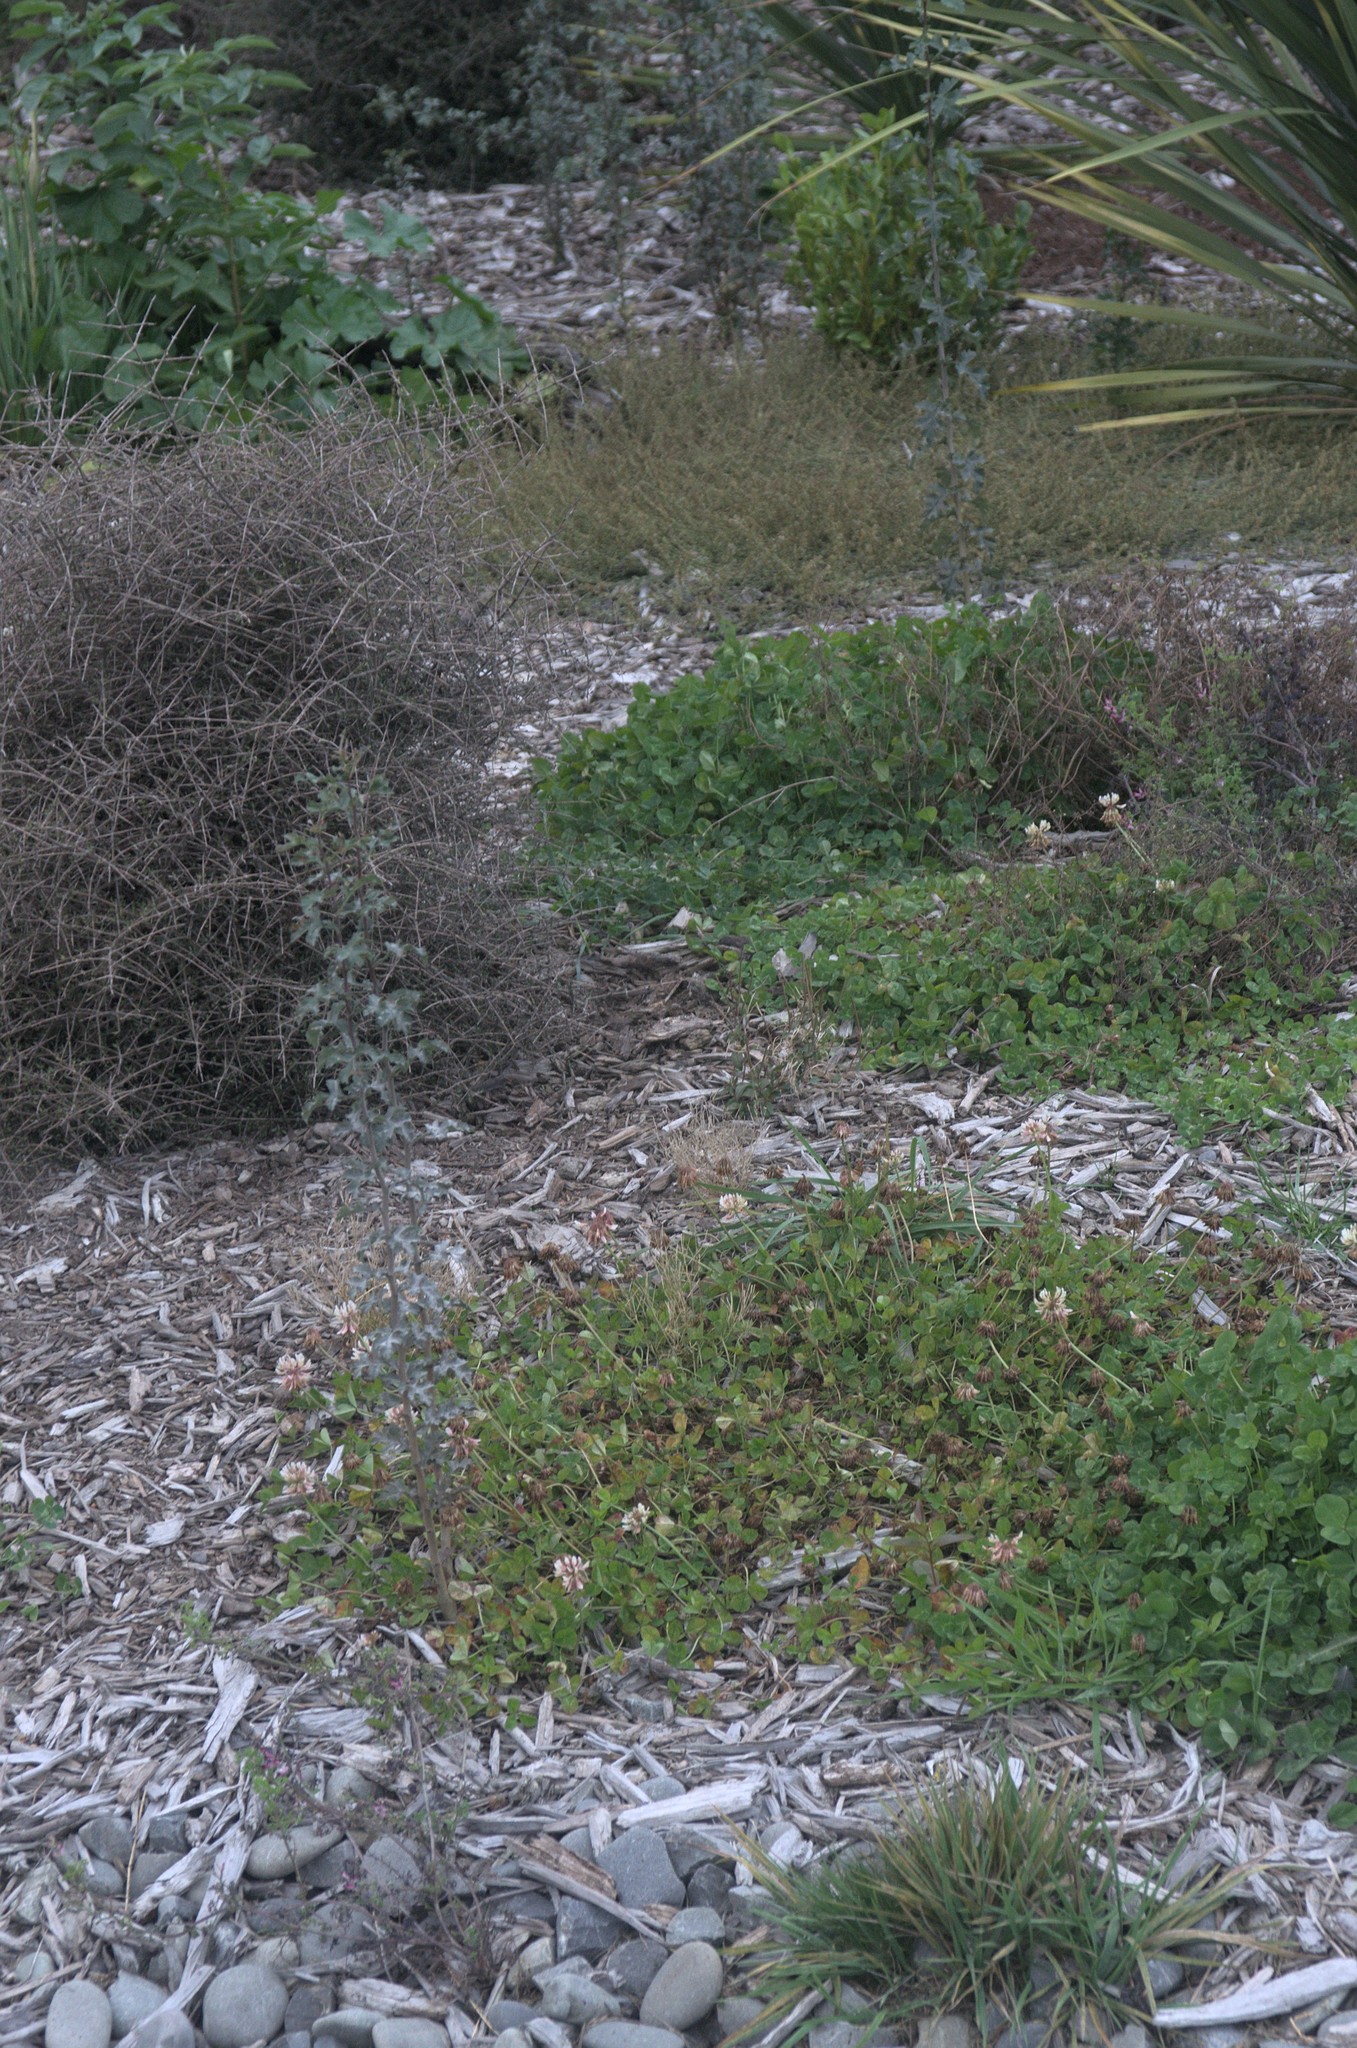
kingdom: Plantae
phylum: Tracheophyta
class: Magnoliopsida
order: Rosales
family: Rosaceae
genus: Crataegus
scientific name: Crataegus monogyna
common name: Hawthorn
